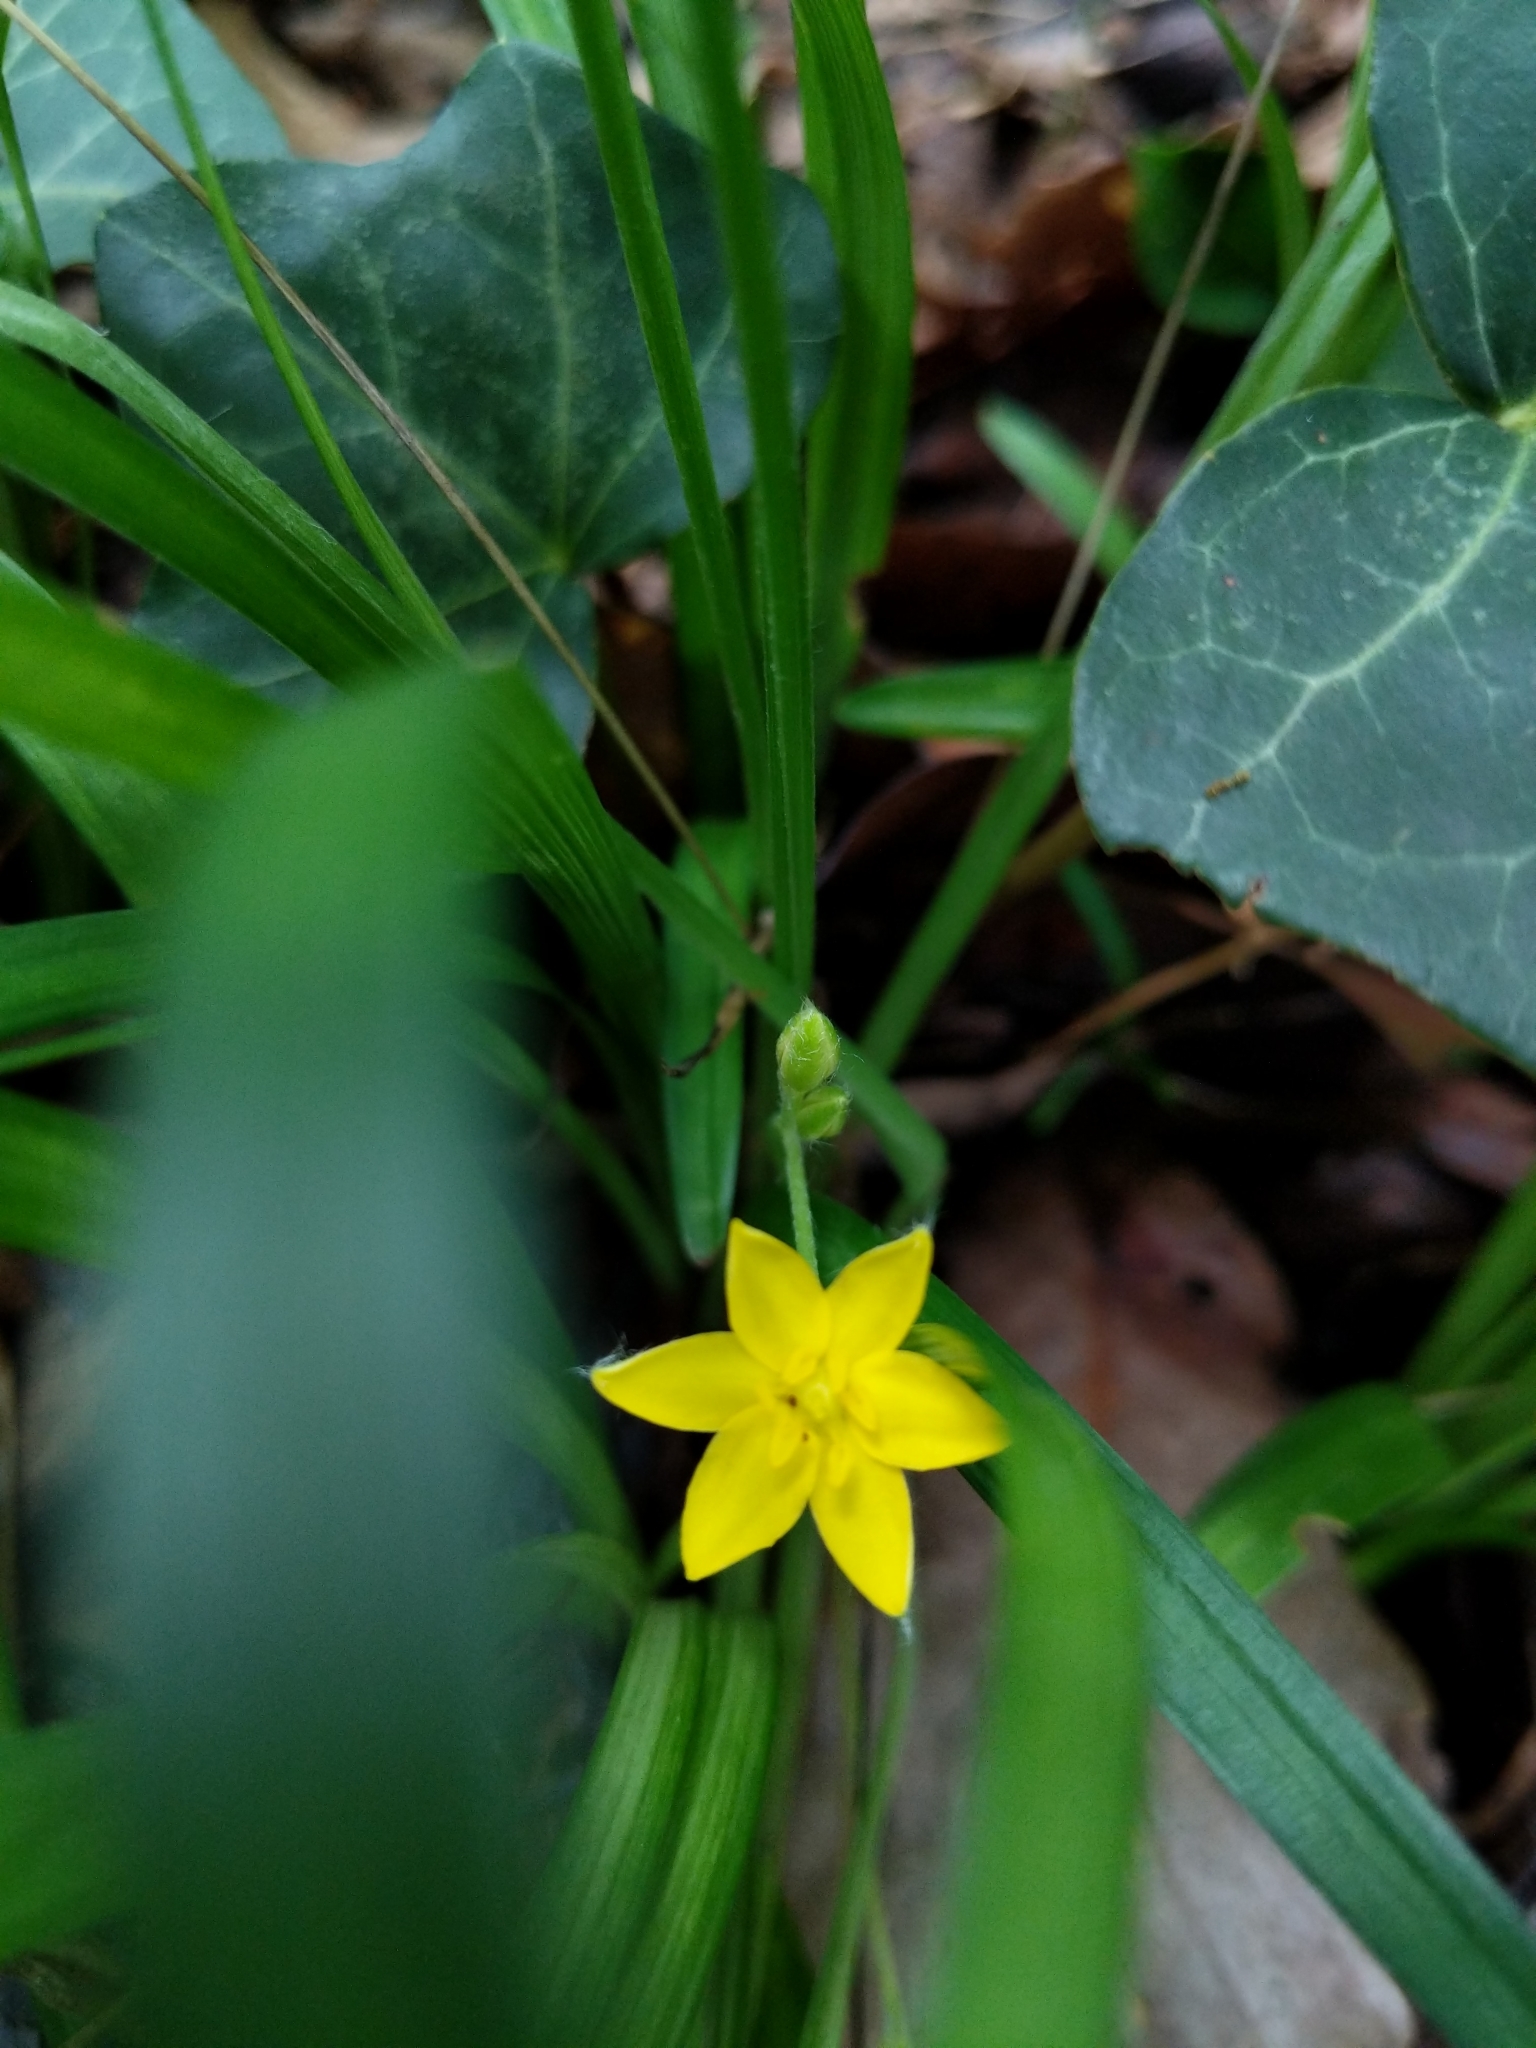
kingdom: Plantae
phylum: Tracheophyta
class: Liliopsida
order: Asparagales
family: Hypoxidaceae
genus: Hypoxis
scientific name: Hypoxis hirsuta
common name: Common goldstar
